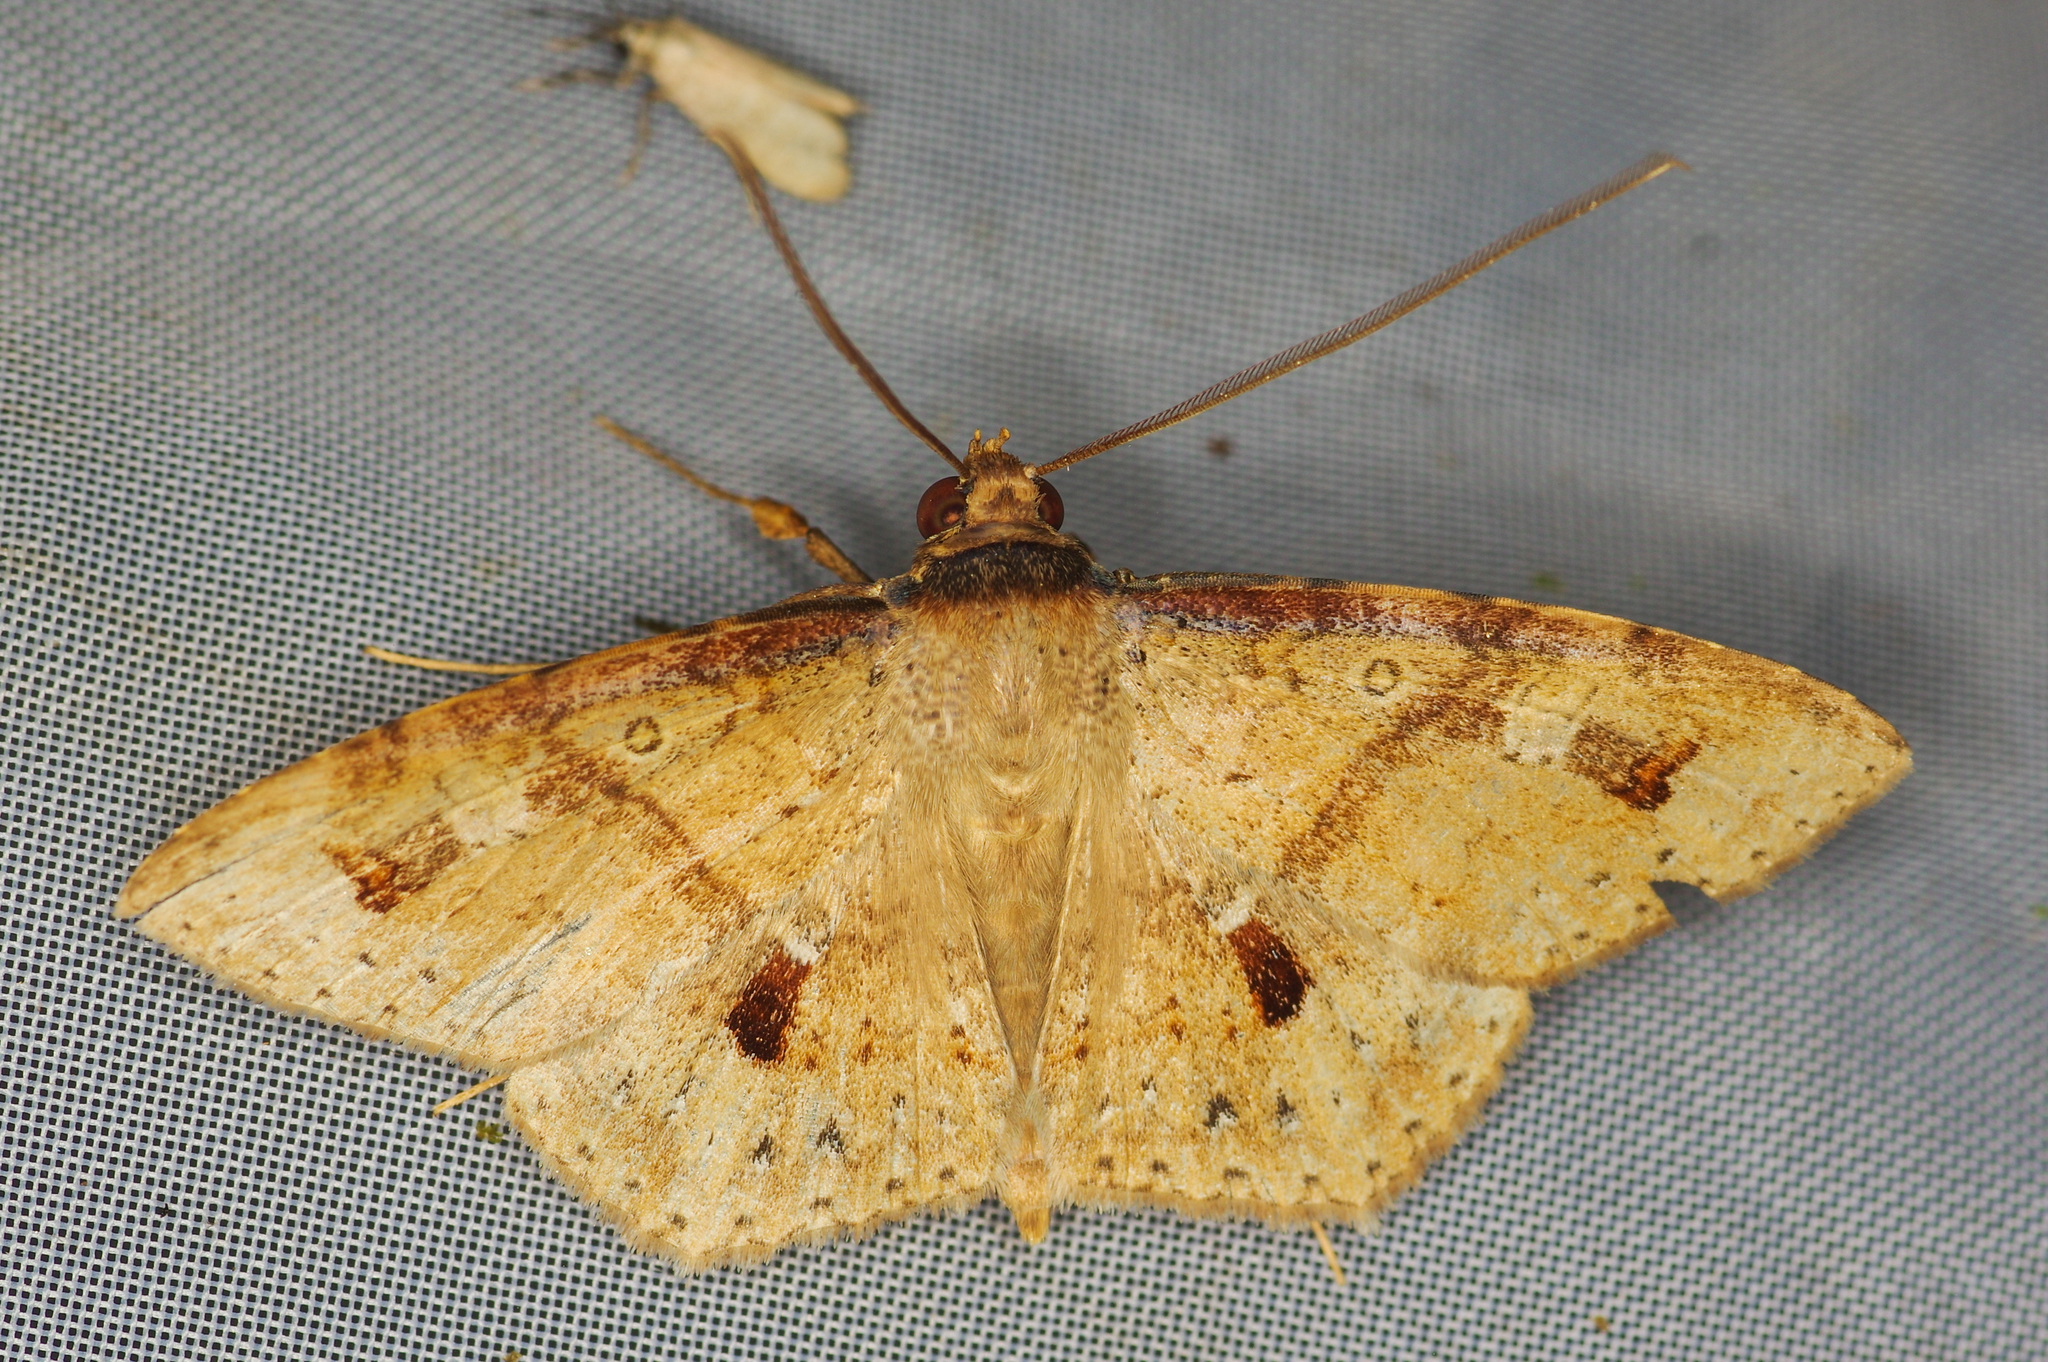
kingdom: Animalia
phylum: Arthropoda
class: Insecta
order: Lepidoptera
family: Erebidae
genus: Ctypansa
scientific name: Ctypansa obtusa
